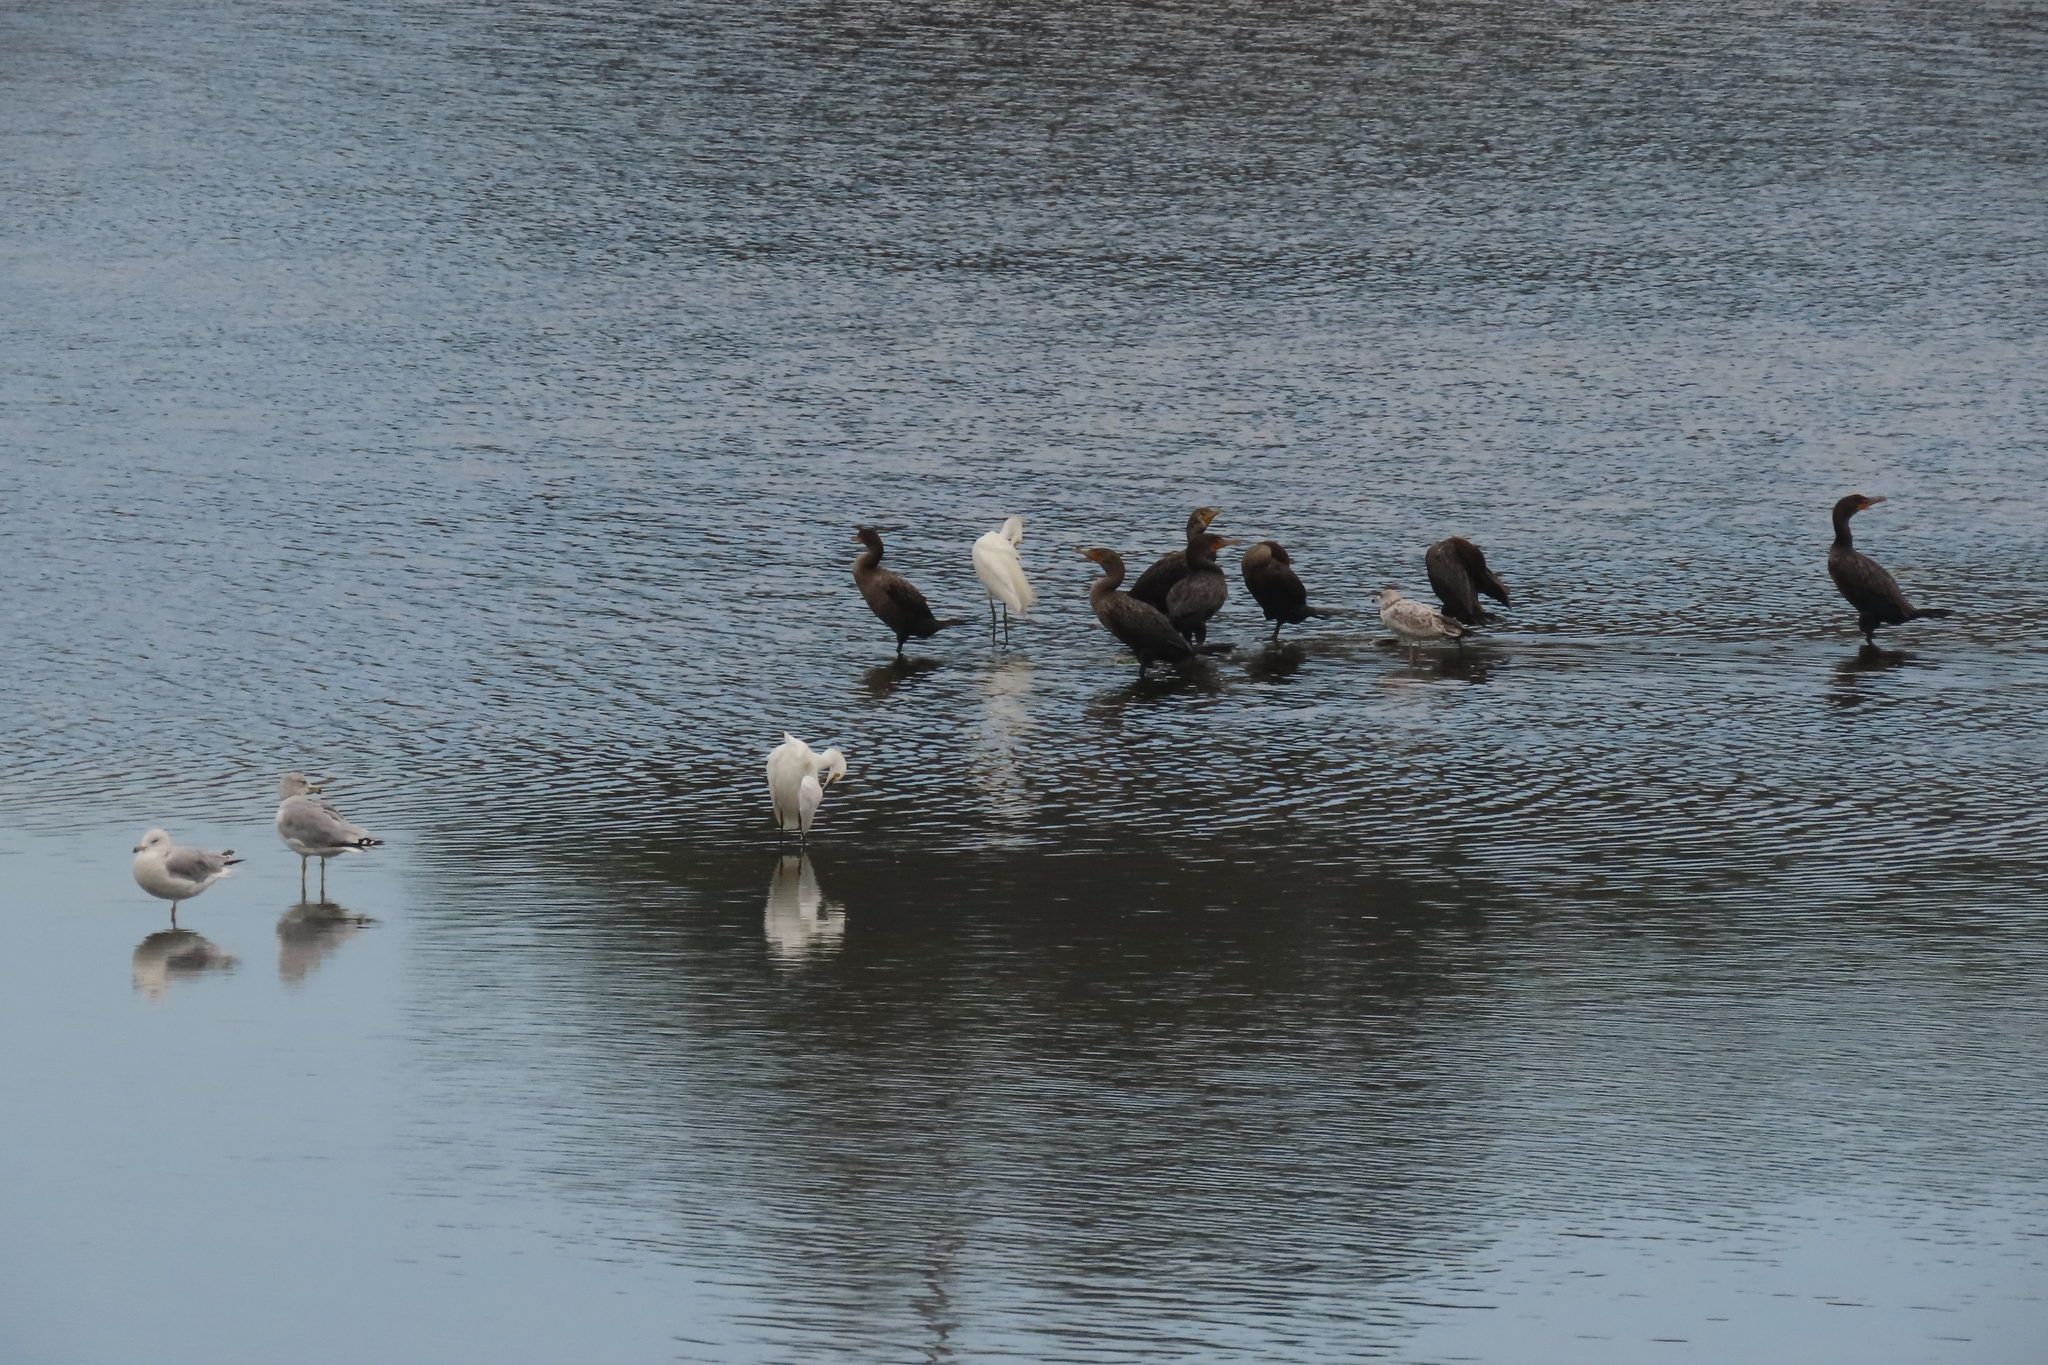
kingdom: Animalia
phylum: Chordata
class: Aves
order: Suliformes
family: Phalacrocoracidae
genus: Phalacrocorax
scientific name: Phalacrocorax auritus
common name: Double-crested cormorant
